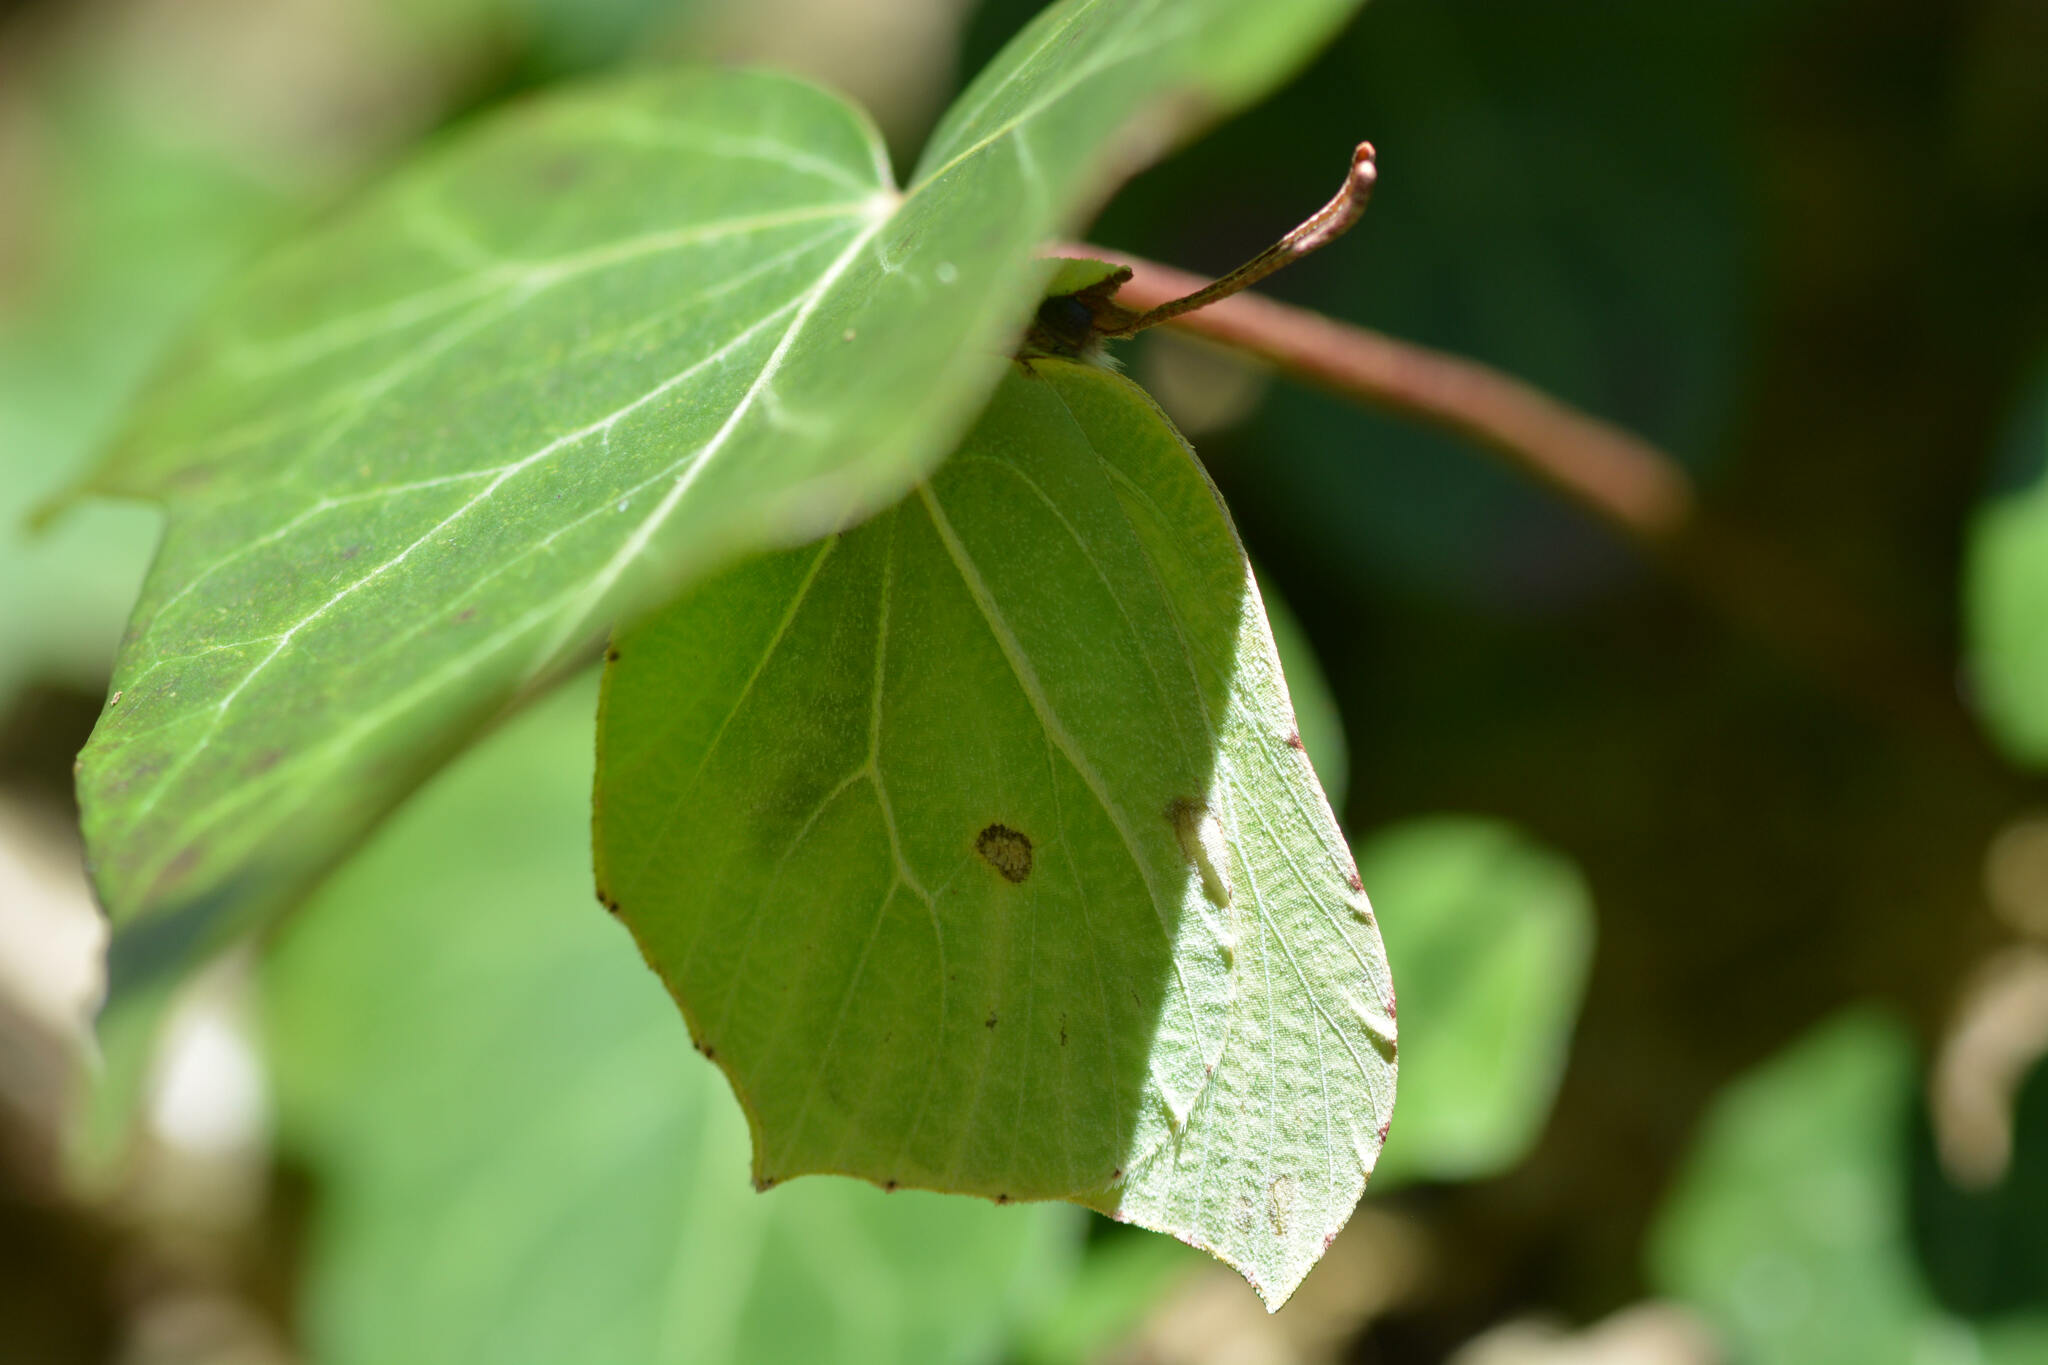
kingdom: Animalia
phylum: Arthropoda
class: Insecta
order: Lepidoptera
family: Pieridae
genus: Gonepteryx
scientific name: Gonepteryx rhamni
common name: Brimstone
